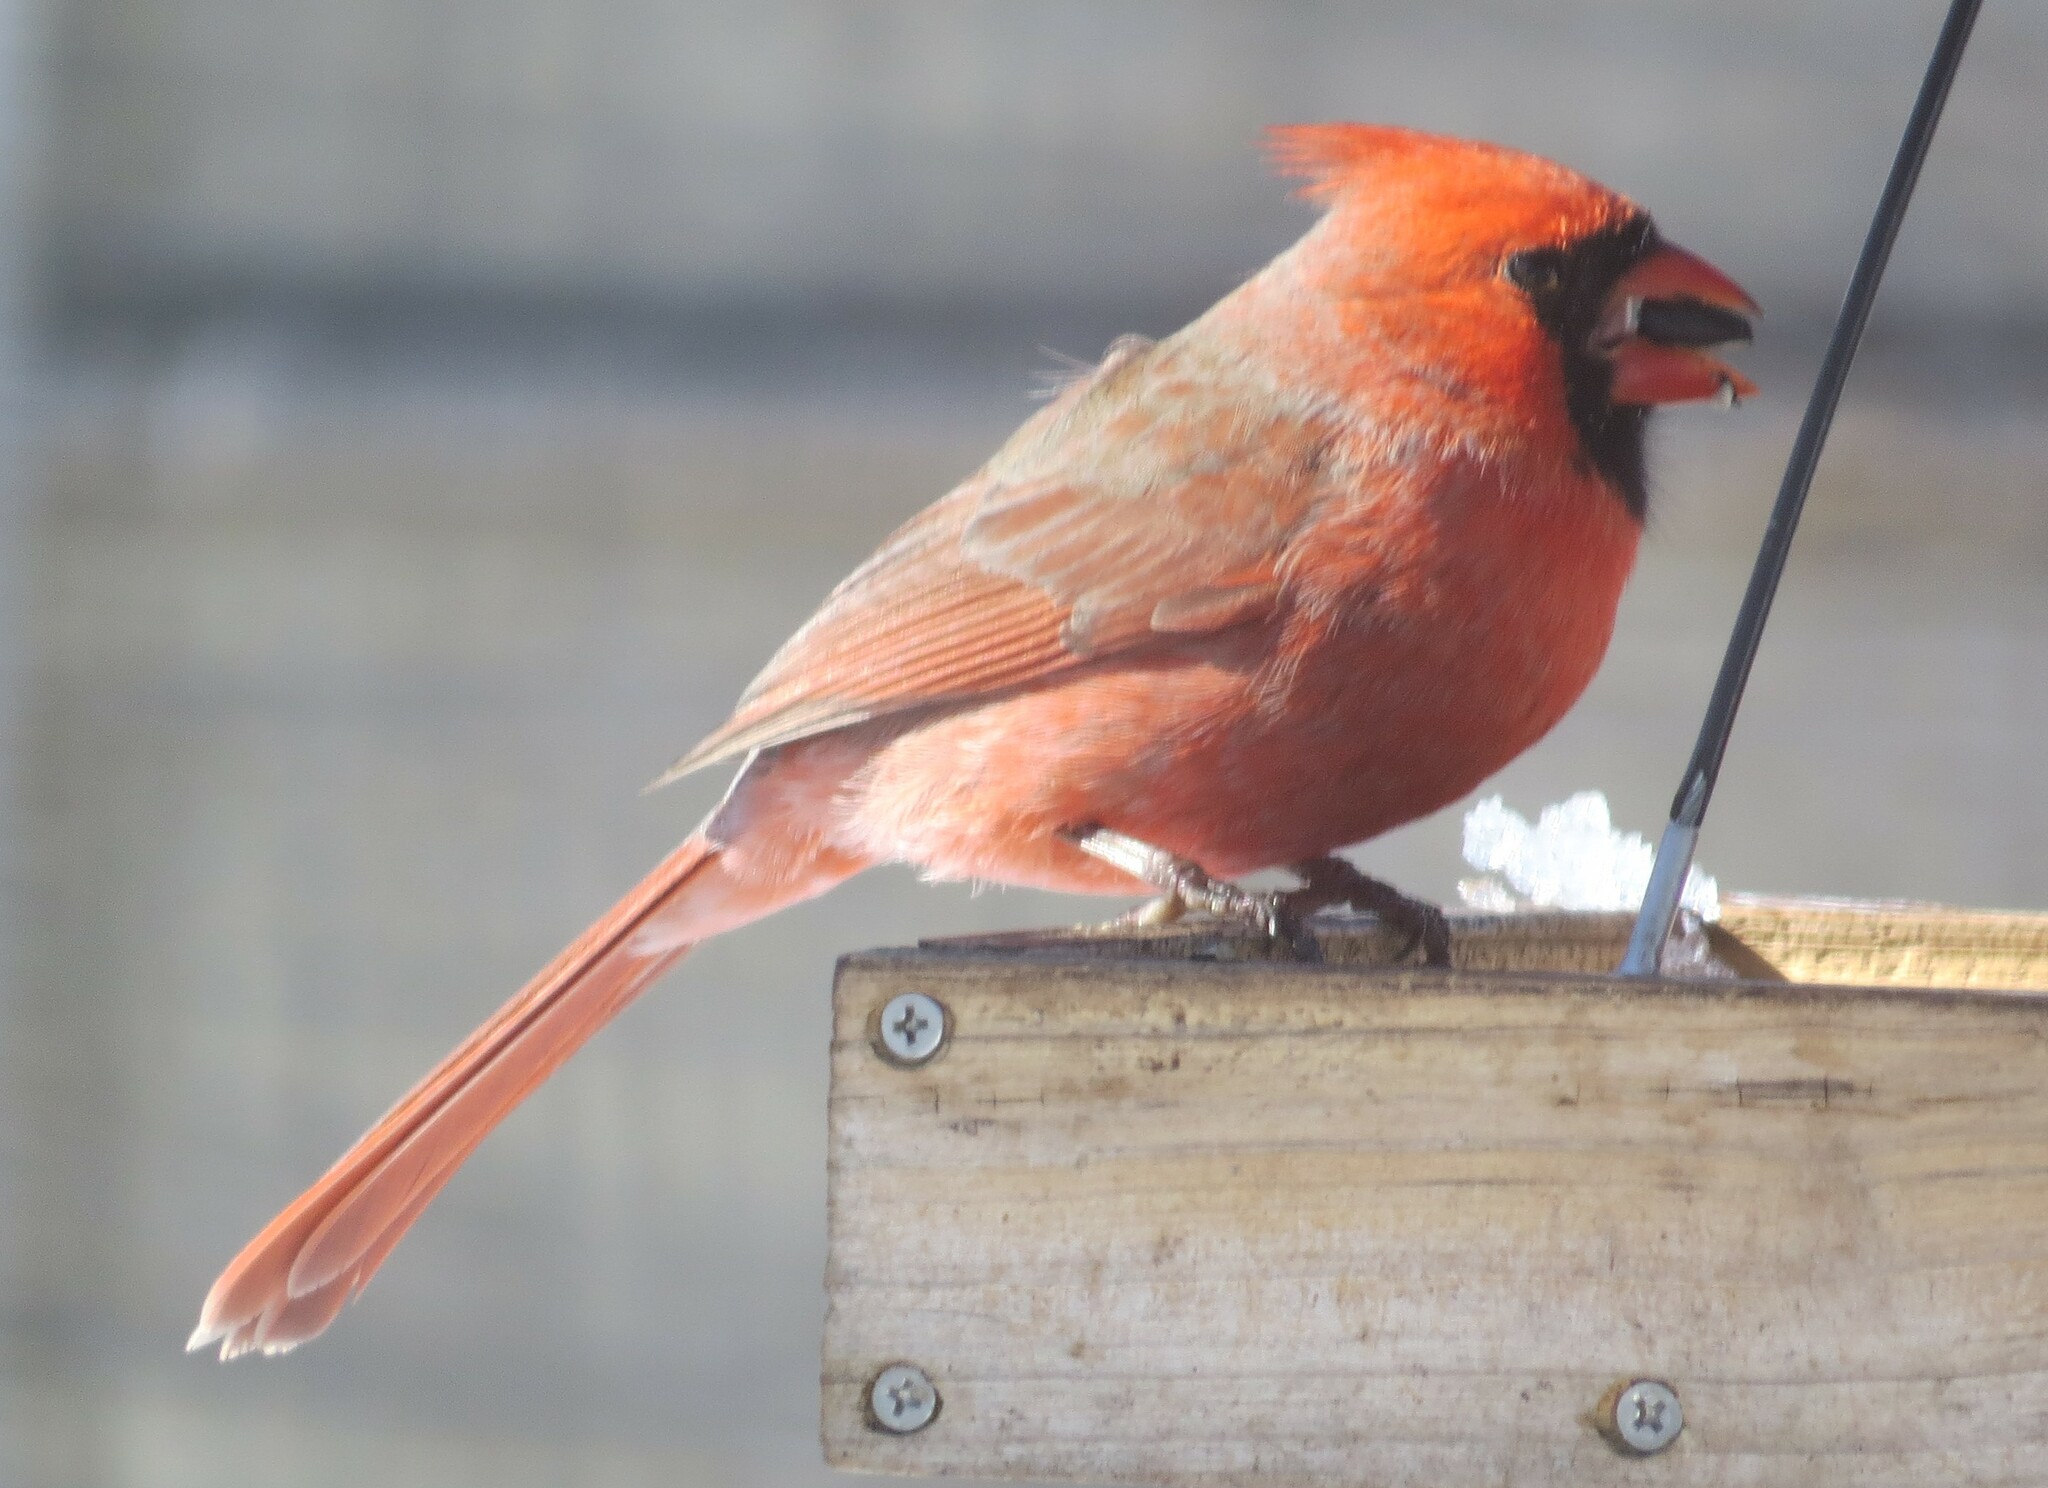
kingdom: Animalia
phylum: Chordata
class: Aves
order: Passeriformes
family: Cardinalidae
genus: Cardinalis
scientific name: Cardinalis cardinalis
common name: Northern cardinal
